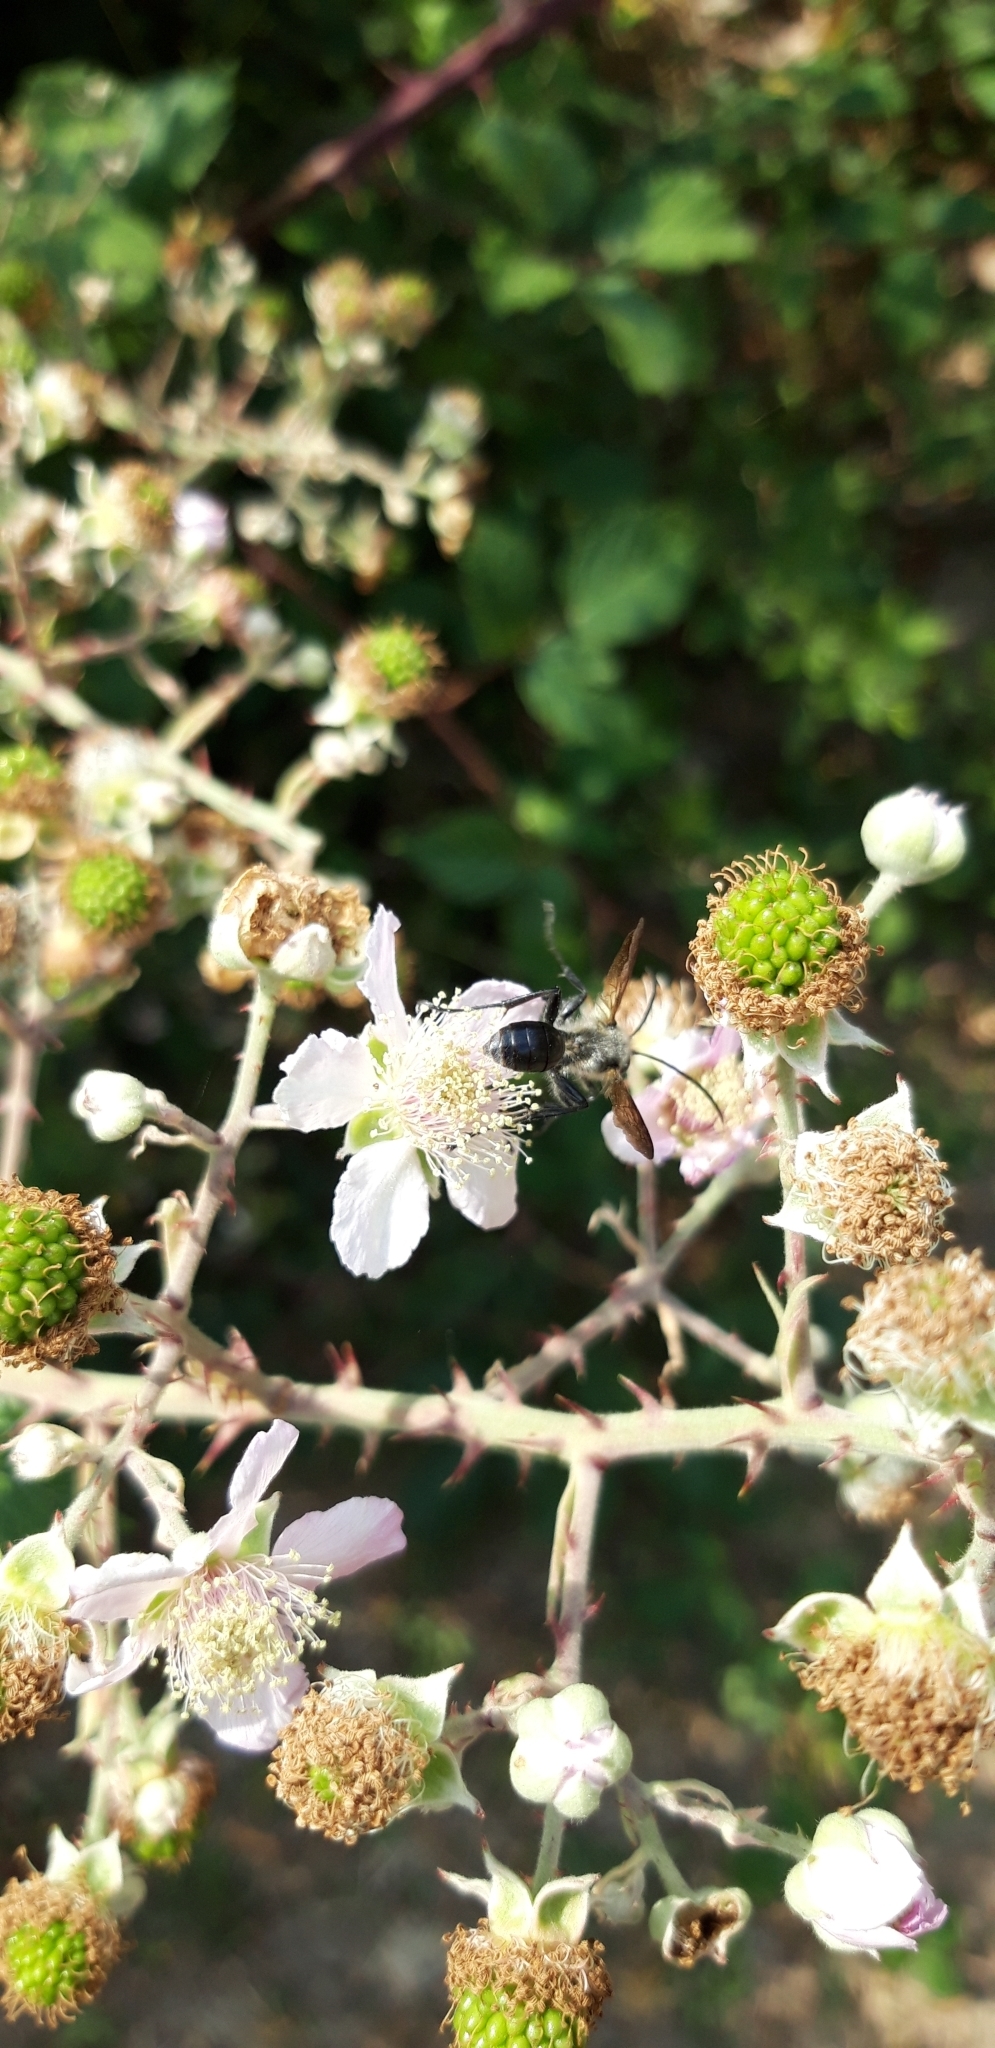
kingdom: Animalia
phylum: Arthropoda
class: Insecta
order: Hymenoptera
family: Sphecidae
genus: Isodontia
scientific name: Isodontia mexicana
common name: Mud dauber
